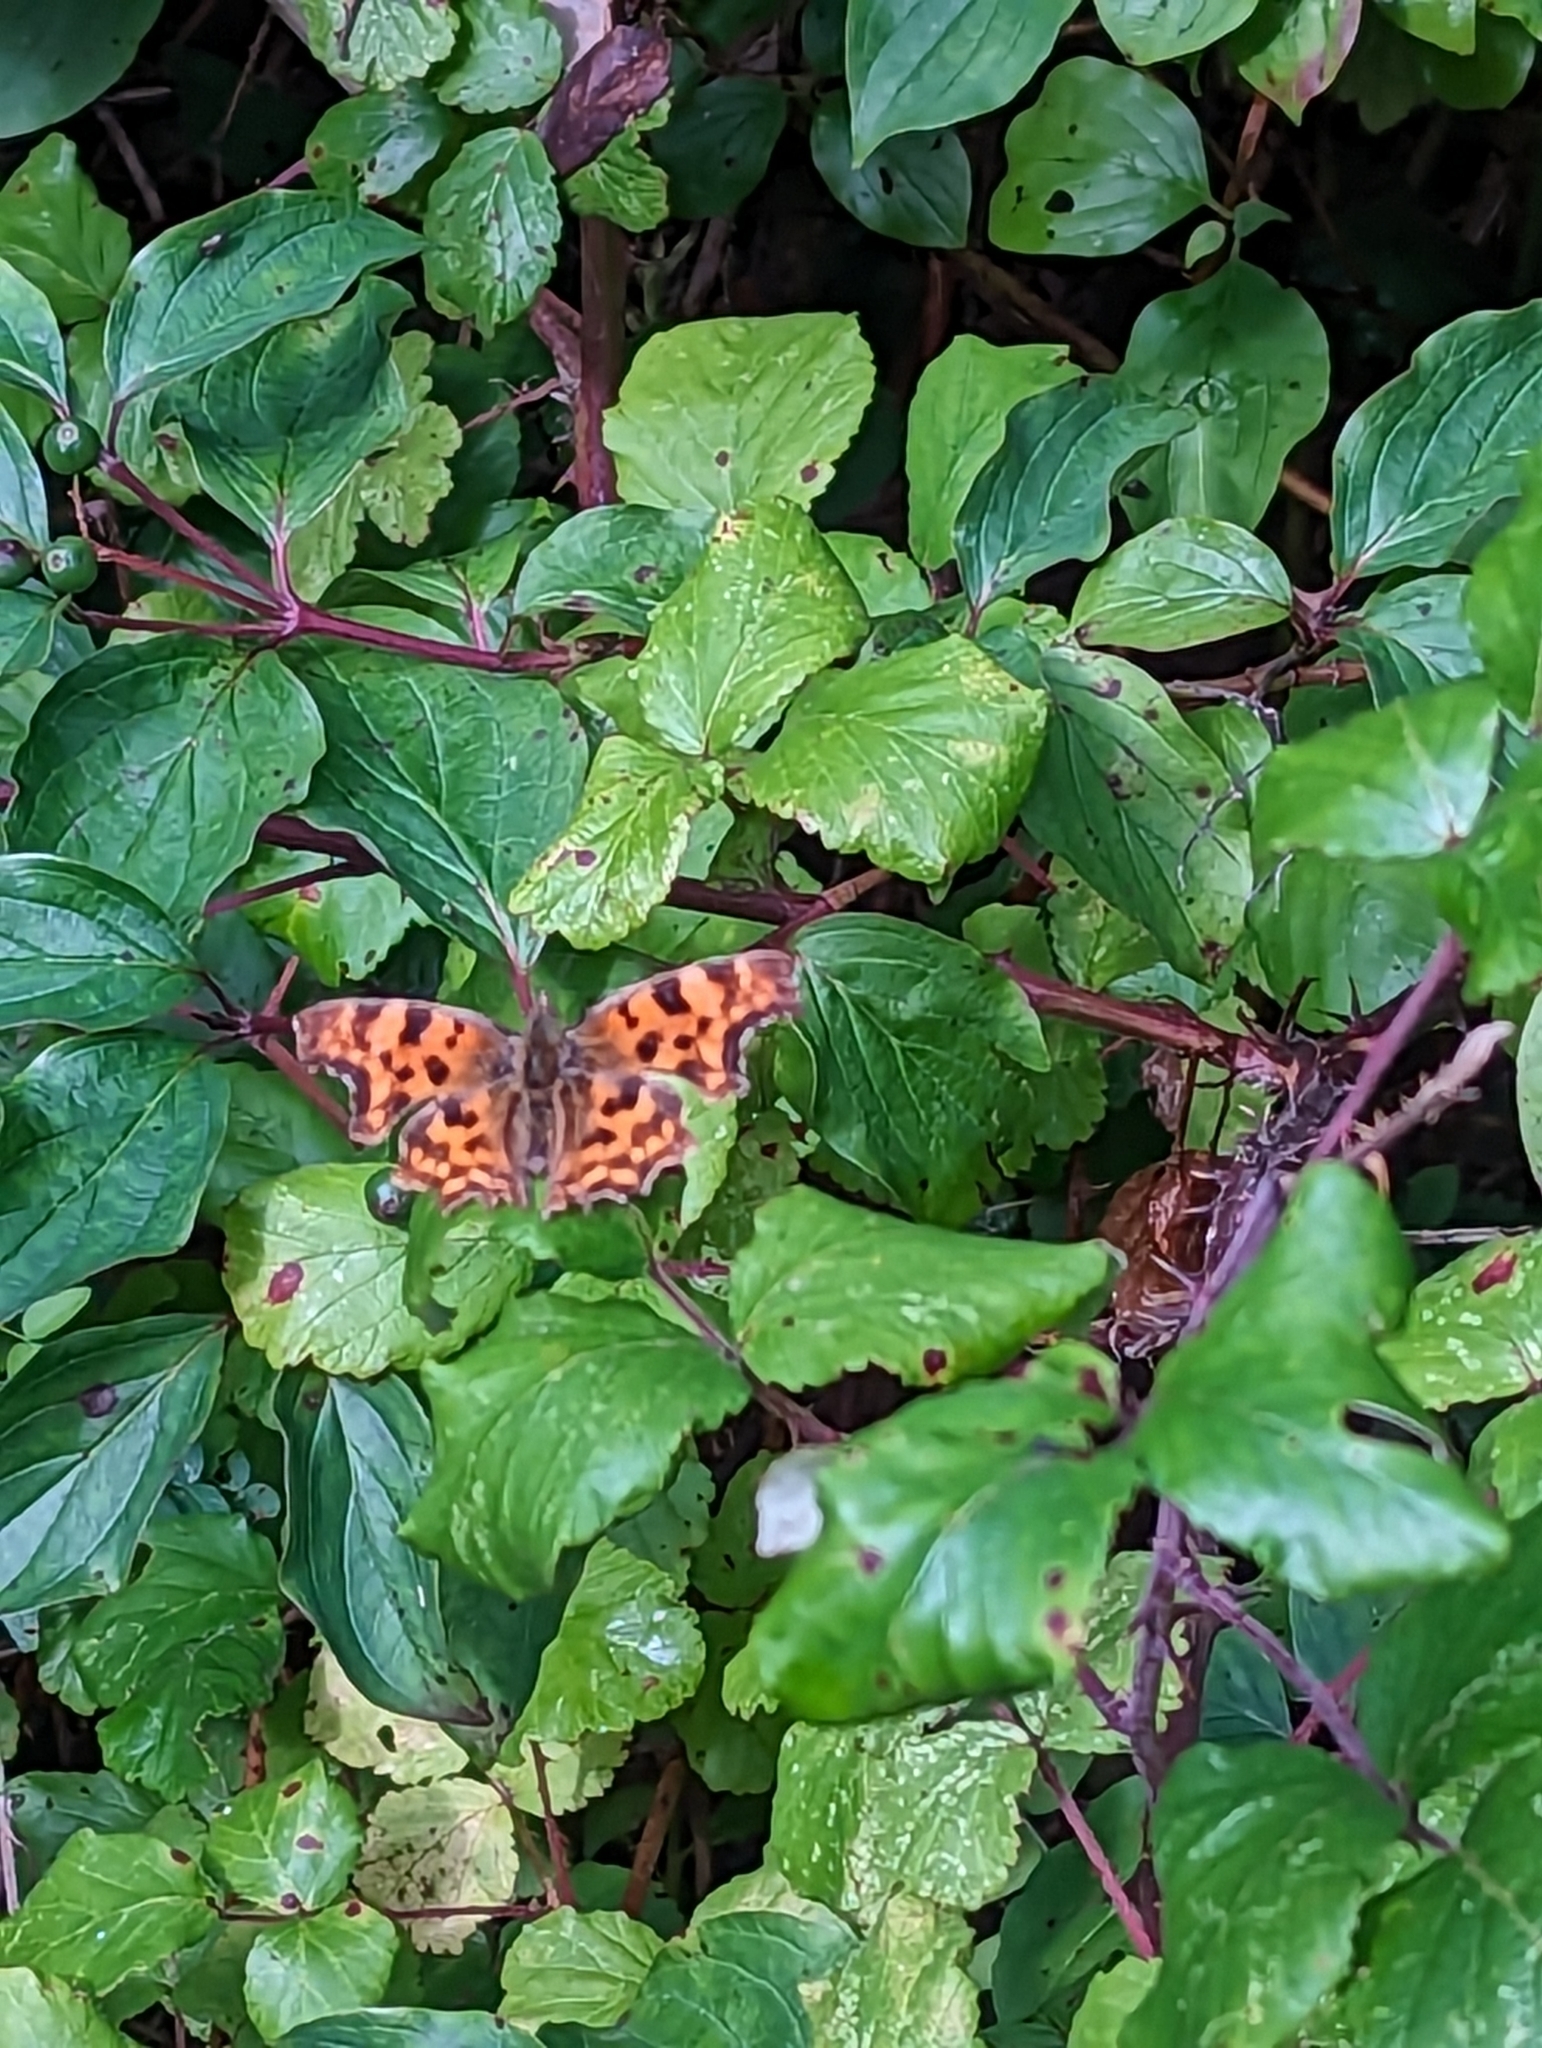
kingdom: Animalia
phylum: Arthropoda
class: Insecta
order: Lepidoptera
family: Nymphalidae
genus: Polygonia
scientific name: Polygonia c-album
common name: Comma
